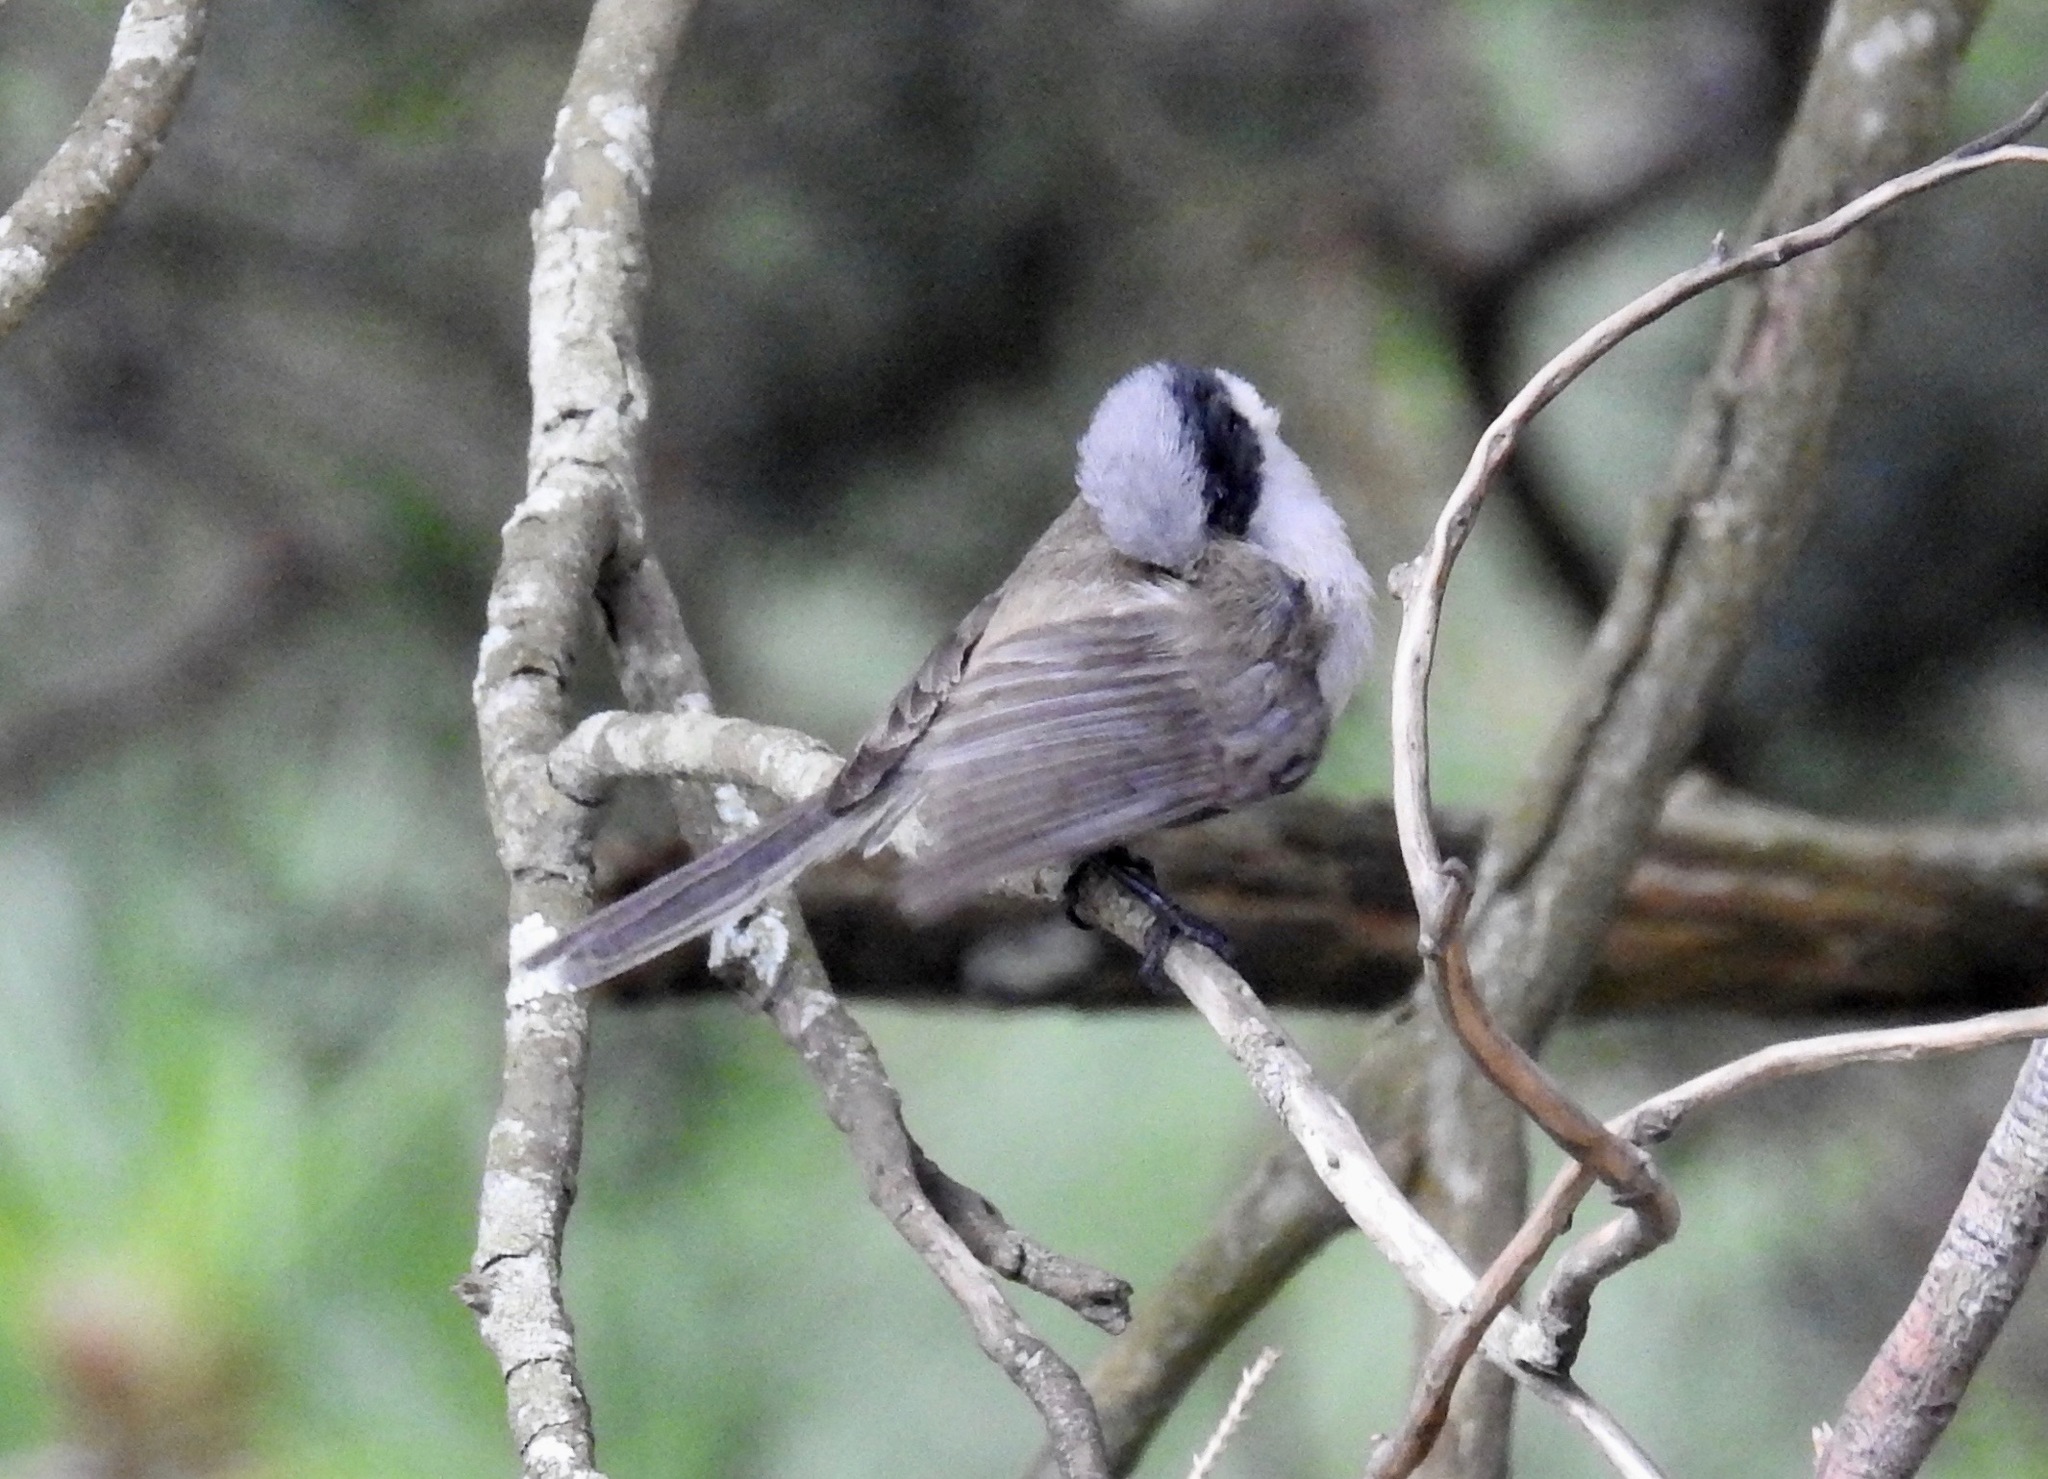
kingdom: Animalia
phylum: Chordata
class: Aves
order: Passeriformes
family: Aegithalidae
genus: Psaltriparus
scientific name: Psaltriparus minimus
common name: American bushtit
